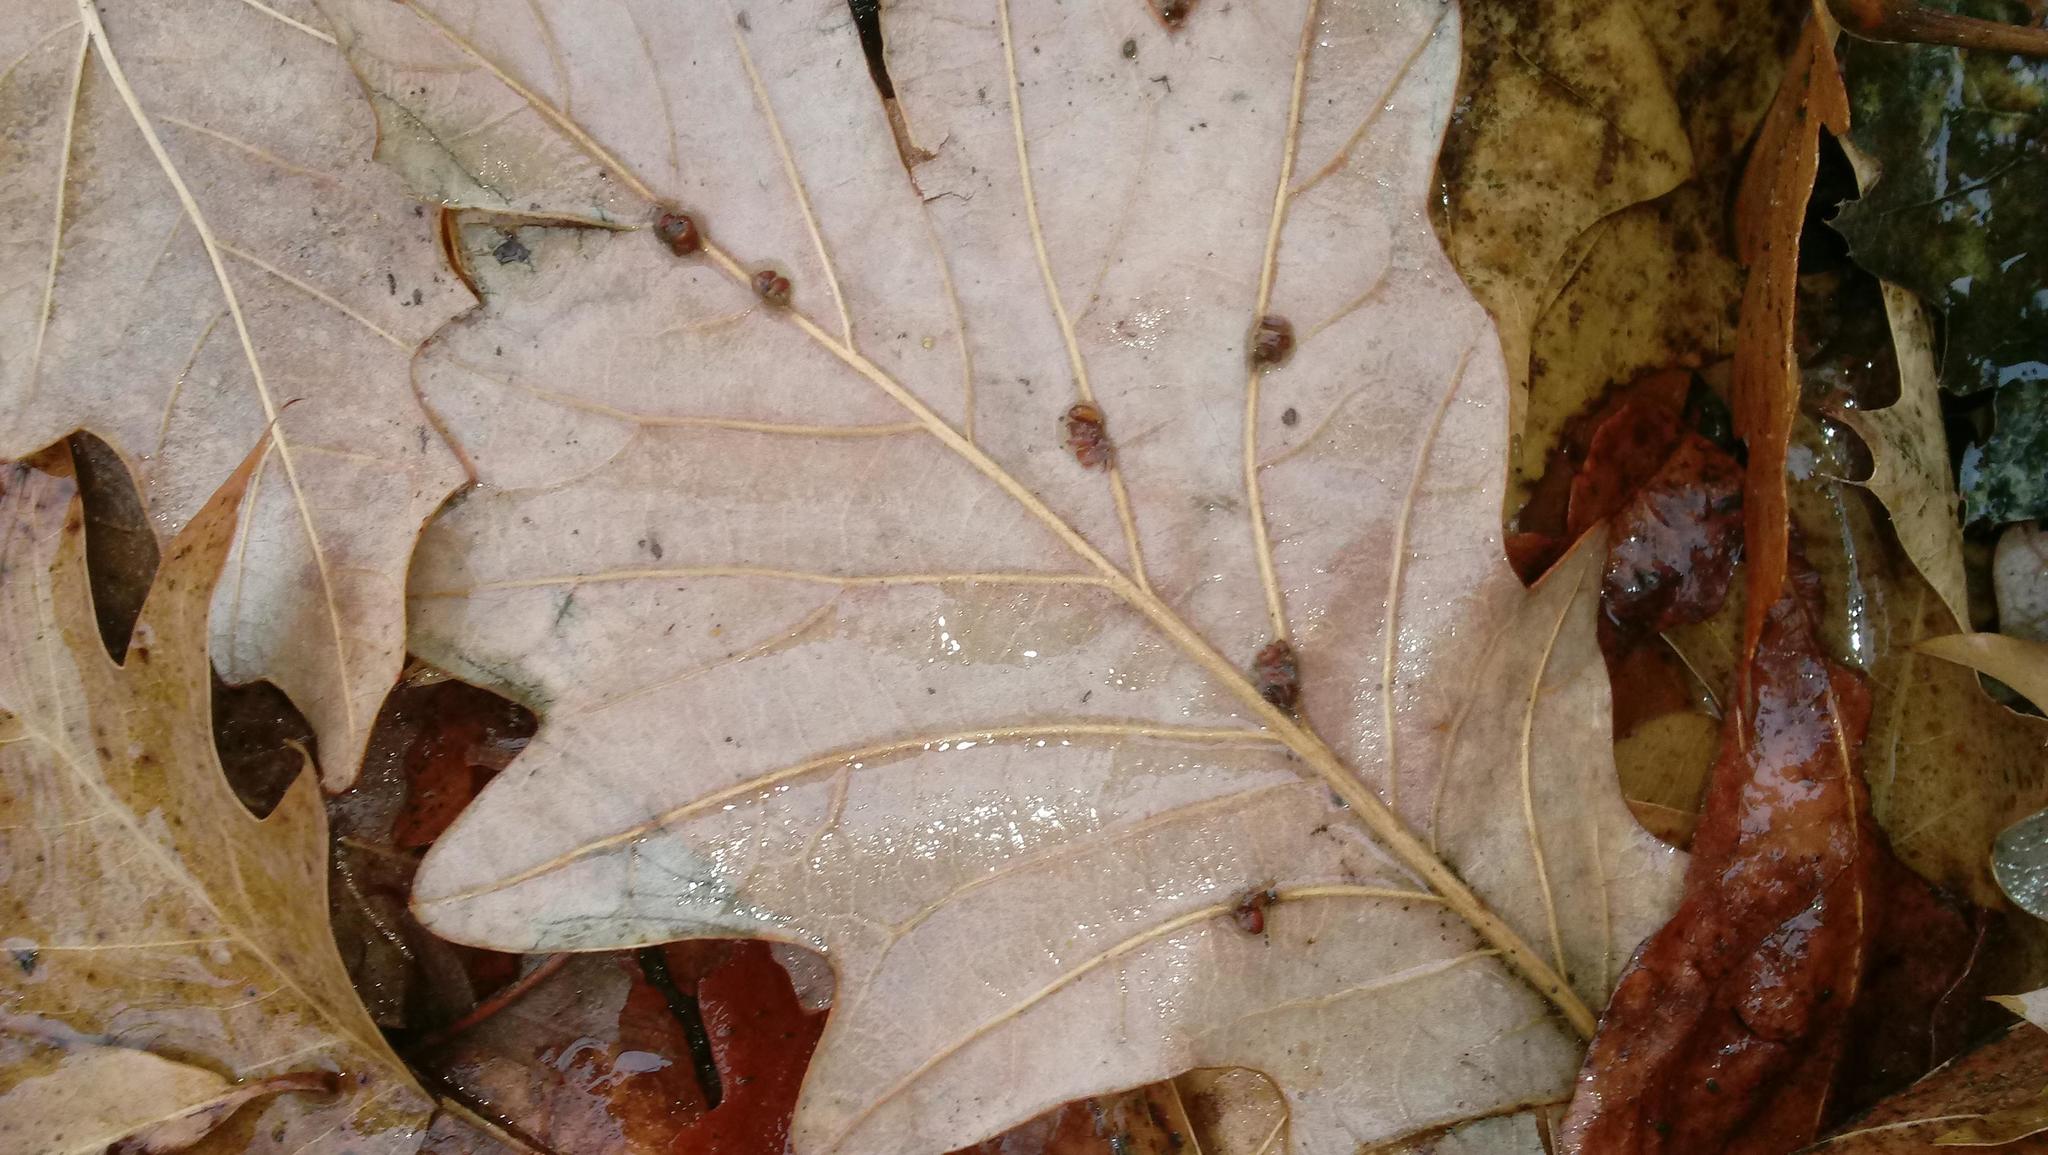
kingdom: Animalia
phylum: Arthropoda
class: Insecta
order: Hymenoptera
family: Cynipidae
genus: Andricus
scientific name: Andricus Druon ignotum
